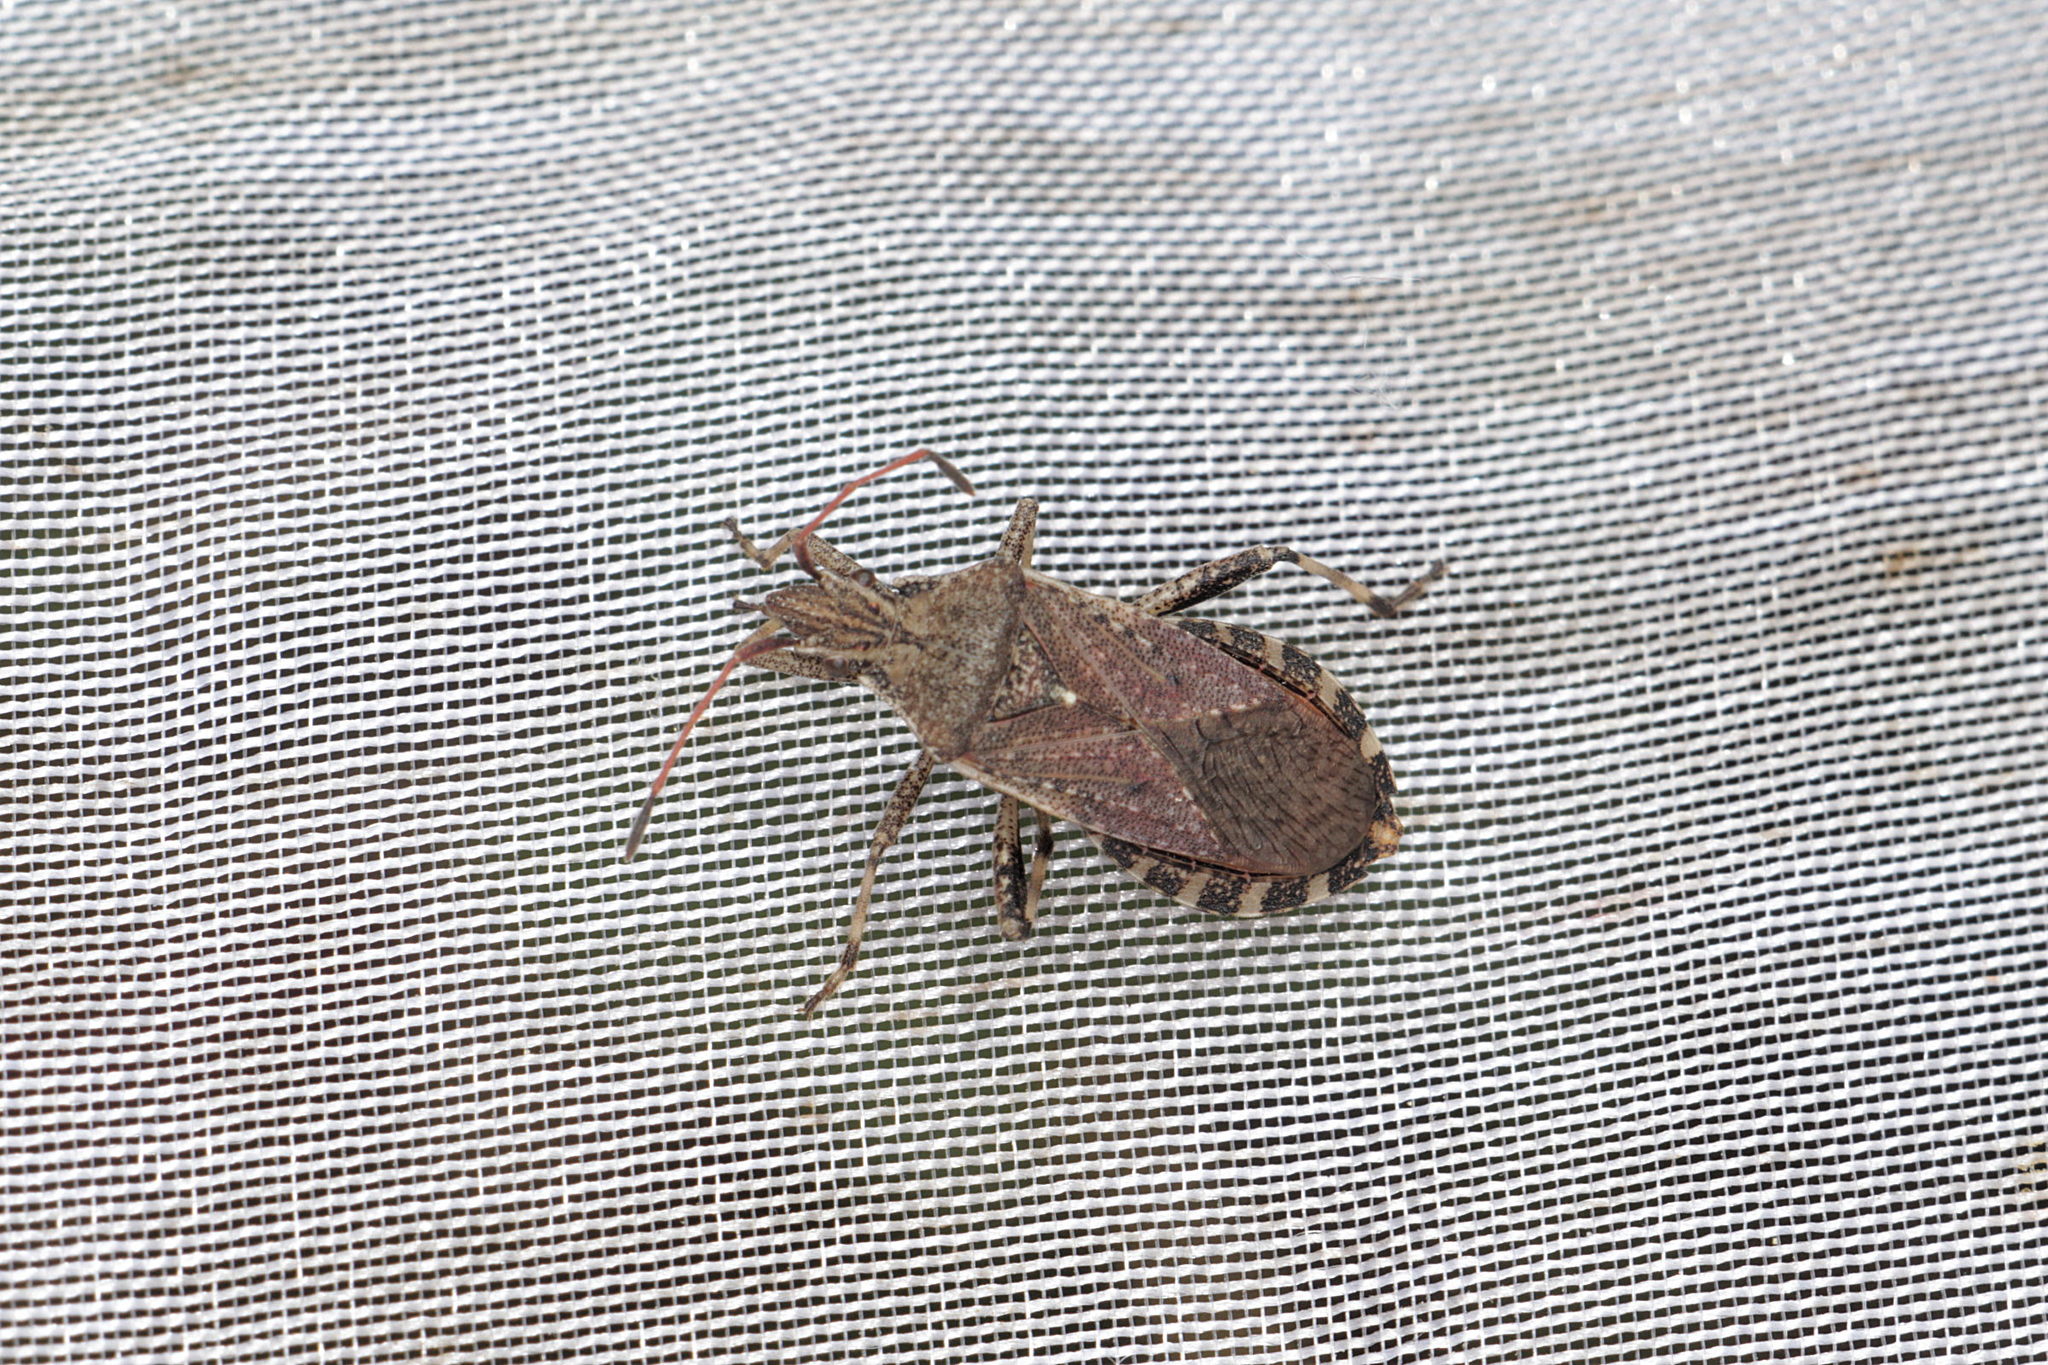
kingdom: Animalia
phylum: Arthropoda
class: Insecta
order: Hemiptera
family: Coreidae
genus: Ceraleptus
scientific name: Ceraleptus gracilicornis
